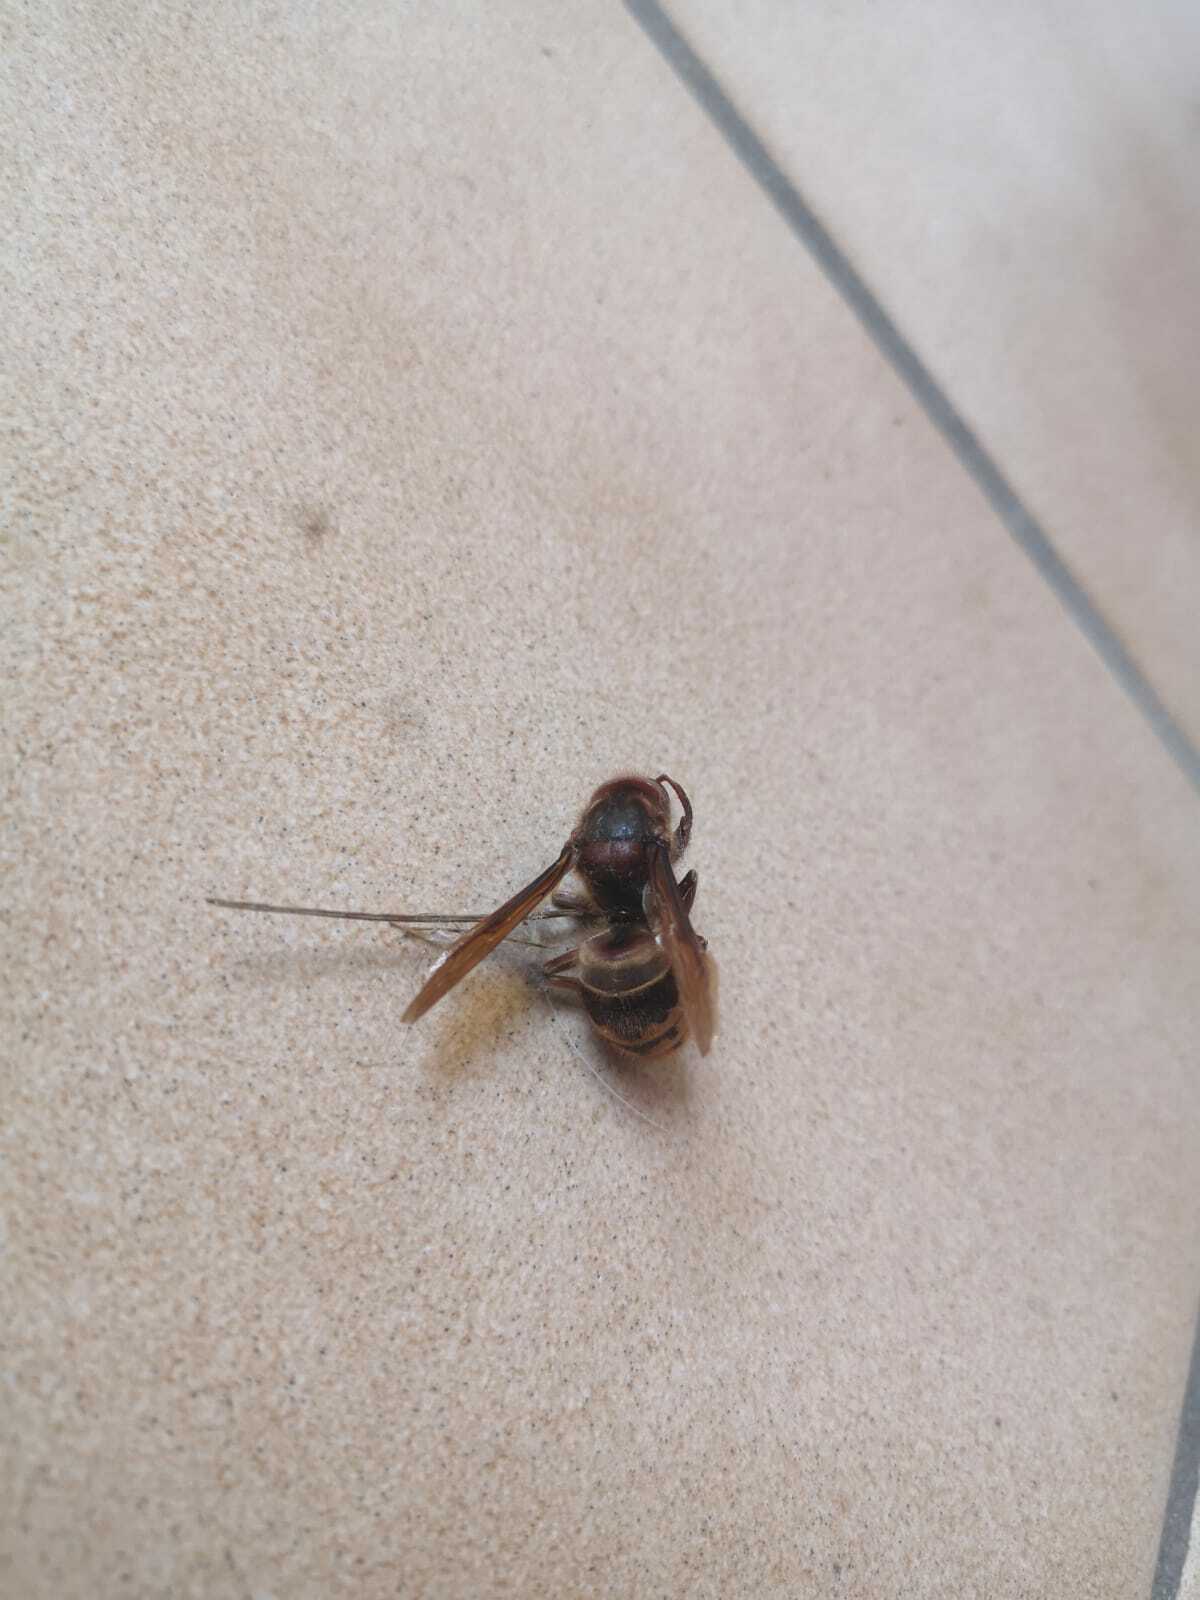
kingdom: Animalia
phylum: Arthropoda
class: Insecta
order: Hymenoptera
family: Vespidae
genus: Vespa
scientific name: Vespa crabro
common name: Hornet
